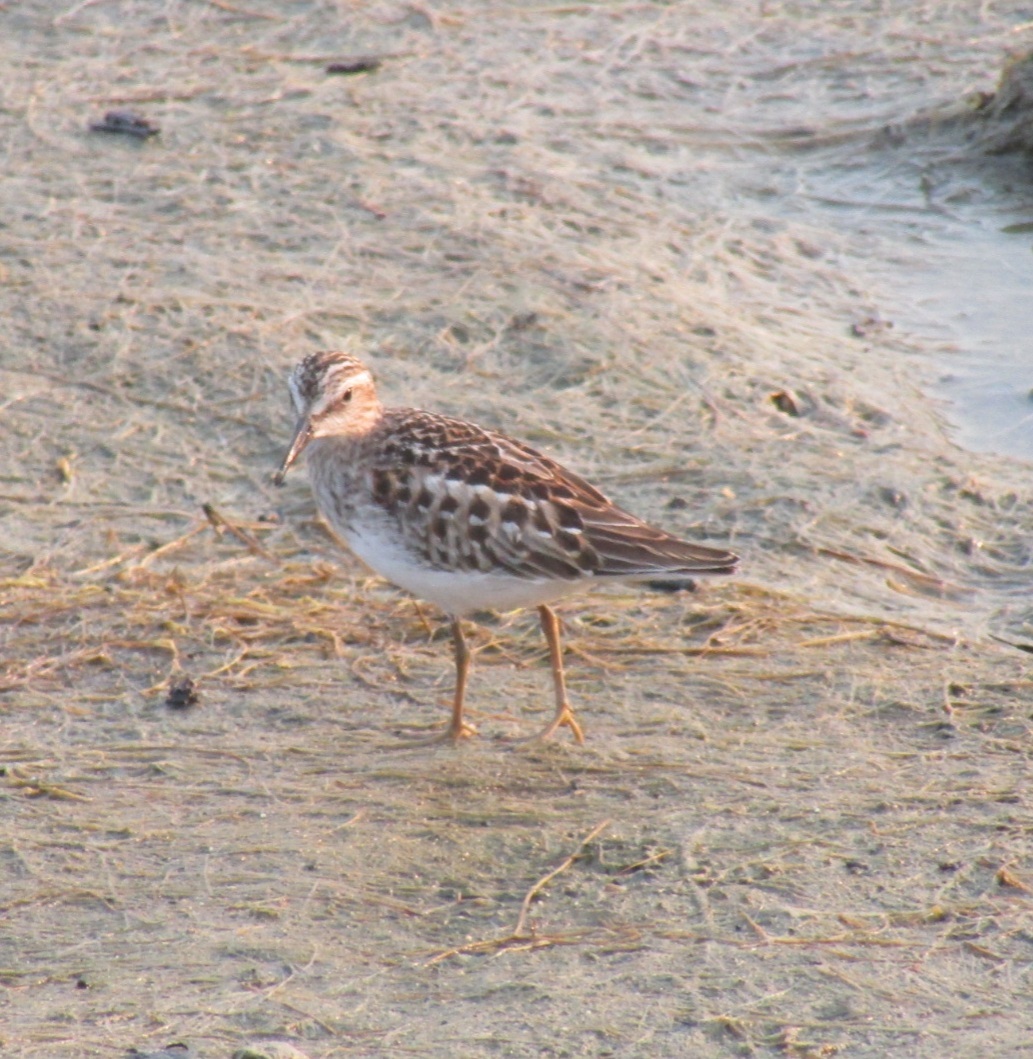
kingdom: Animalia
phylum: Chordata
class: Aves
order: Charadriiformes
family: Scolopacidae
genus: Calidris
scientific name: Calidris minutilla
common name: Least sandpiper
